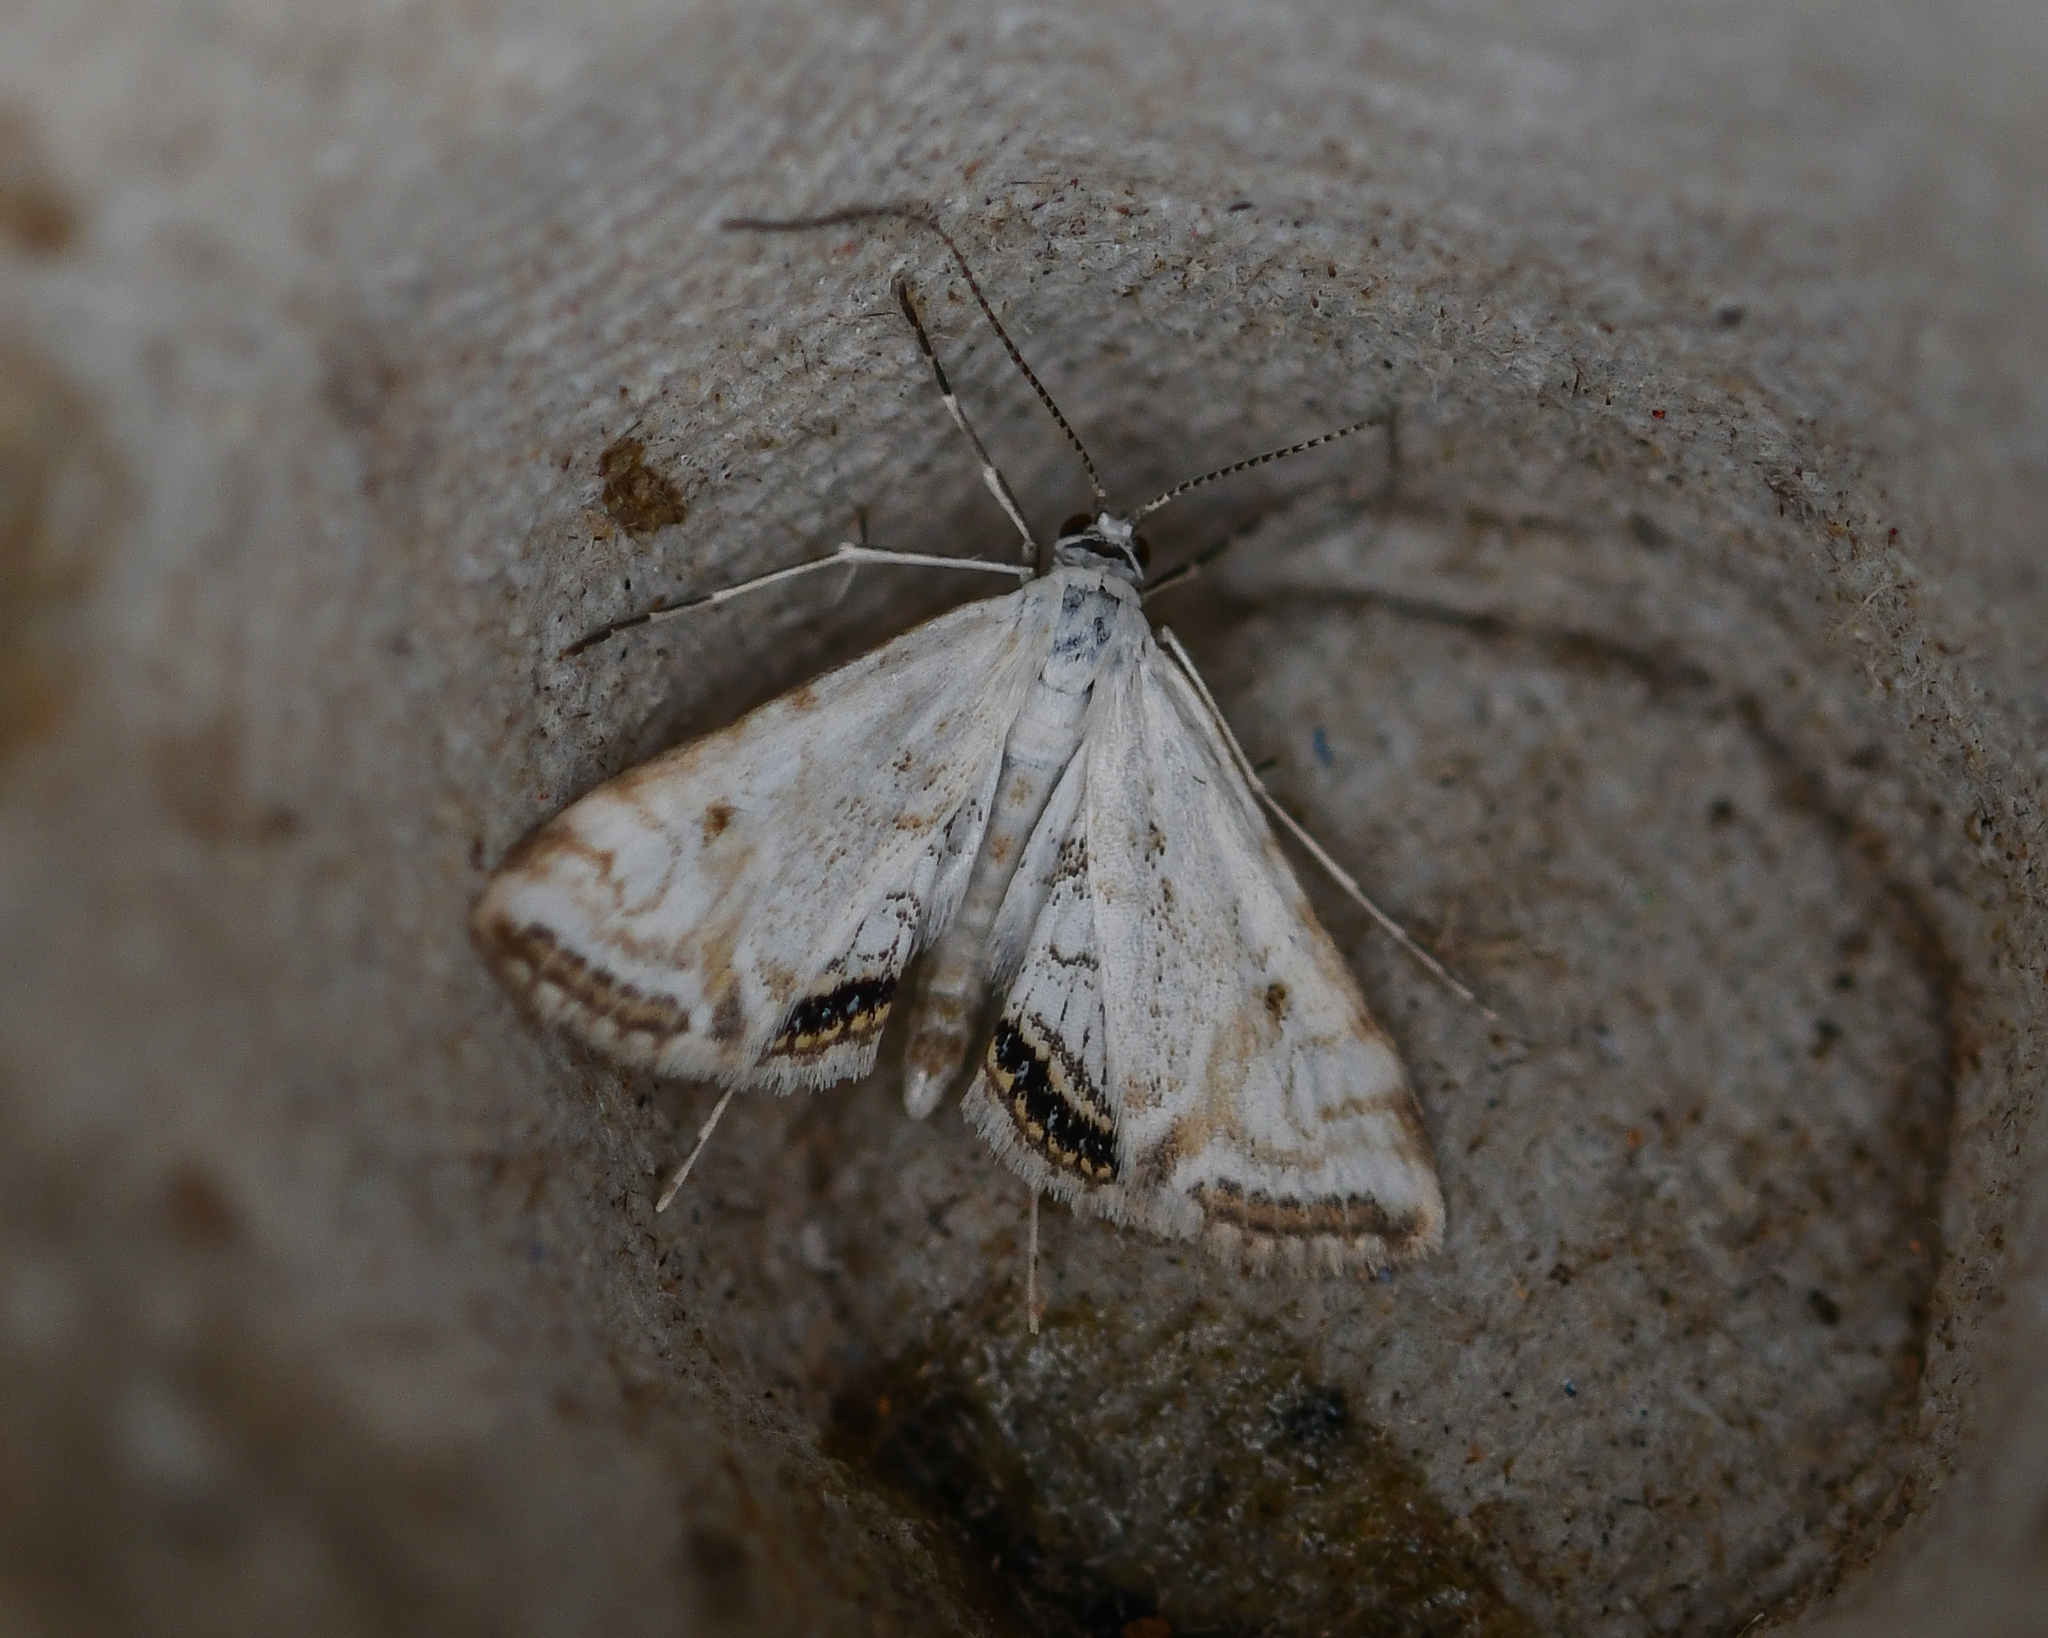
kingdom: Animalia
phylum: Arthropoda
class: Insecta
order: Lepidoptera
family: Crambidae
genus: Cataclysta
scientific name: Cataclysta lemnata
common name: Small china-mark
